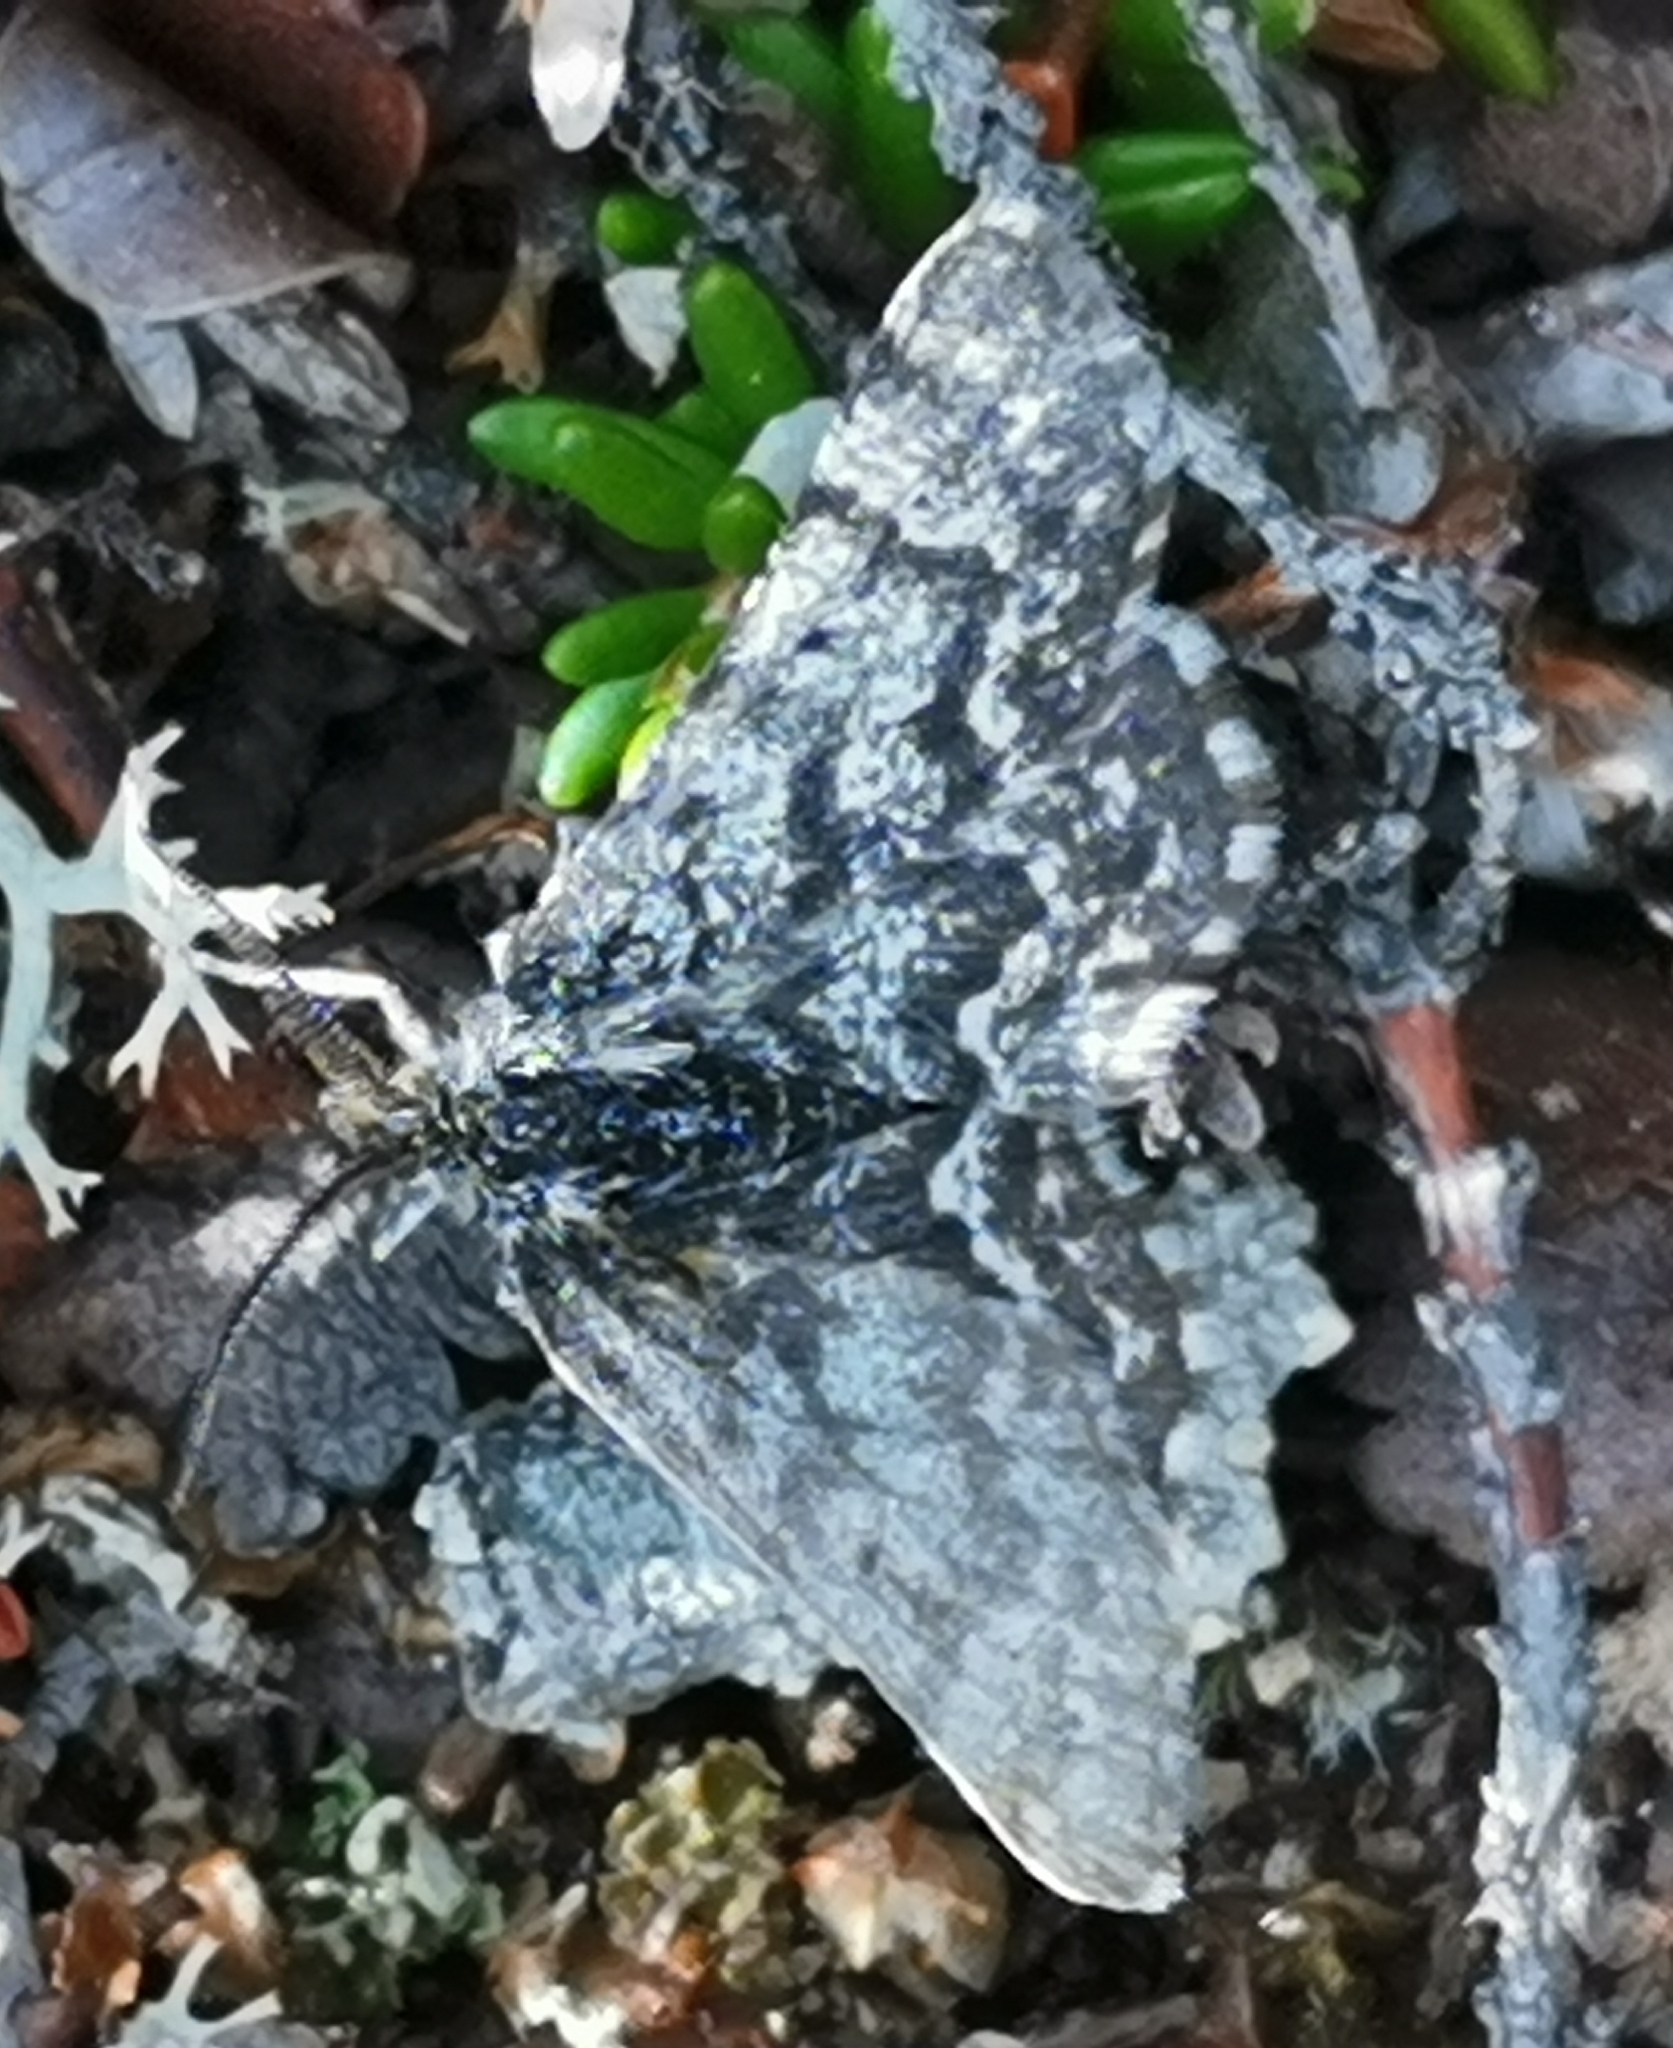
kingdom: Animalia
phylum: Arthropoda
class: Insecta
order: Lepidoptera
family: Geometridae
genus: Macaria
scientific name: Macaria carbonaria
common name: Netted mountain moth
